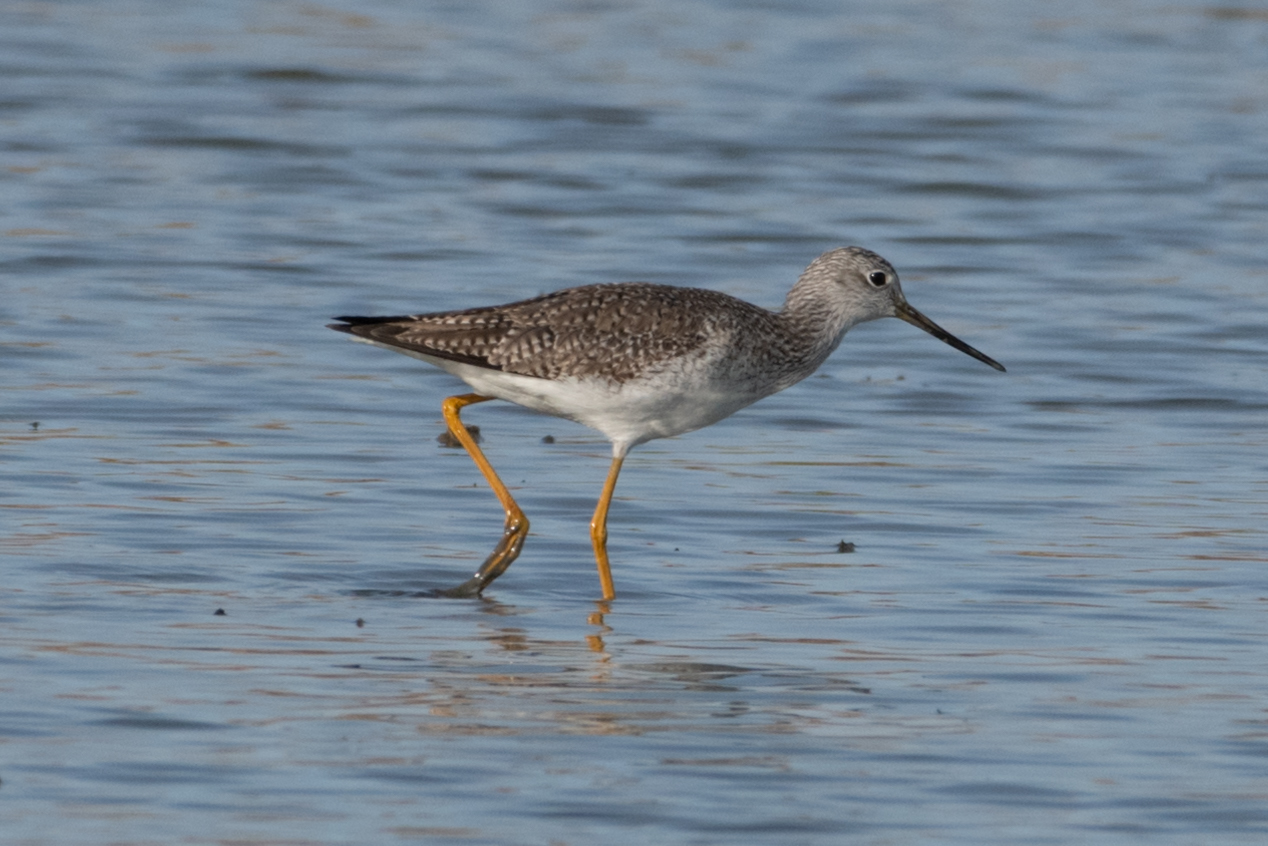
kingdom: Animalia
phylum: Chordata
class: Aves
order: Charadriiformes
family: Scolopacidae
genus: Tringa
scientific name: Tringa melanoleuca
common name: Greater yellowlegs
